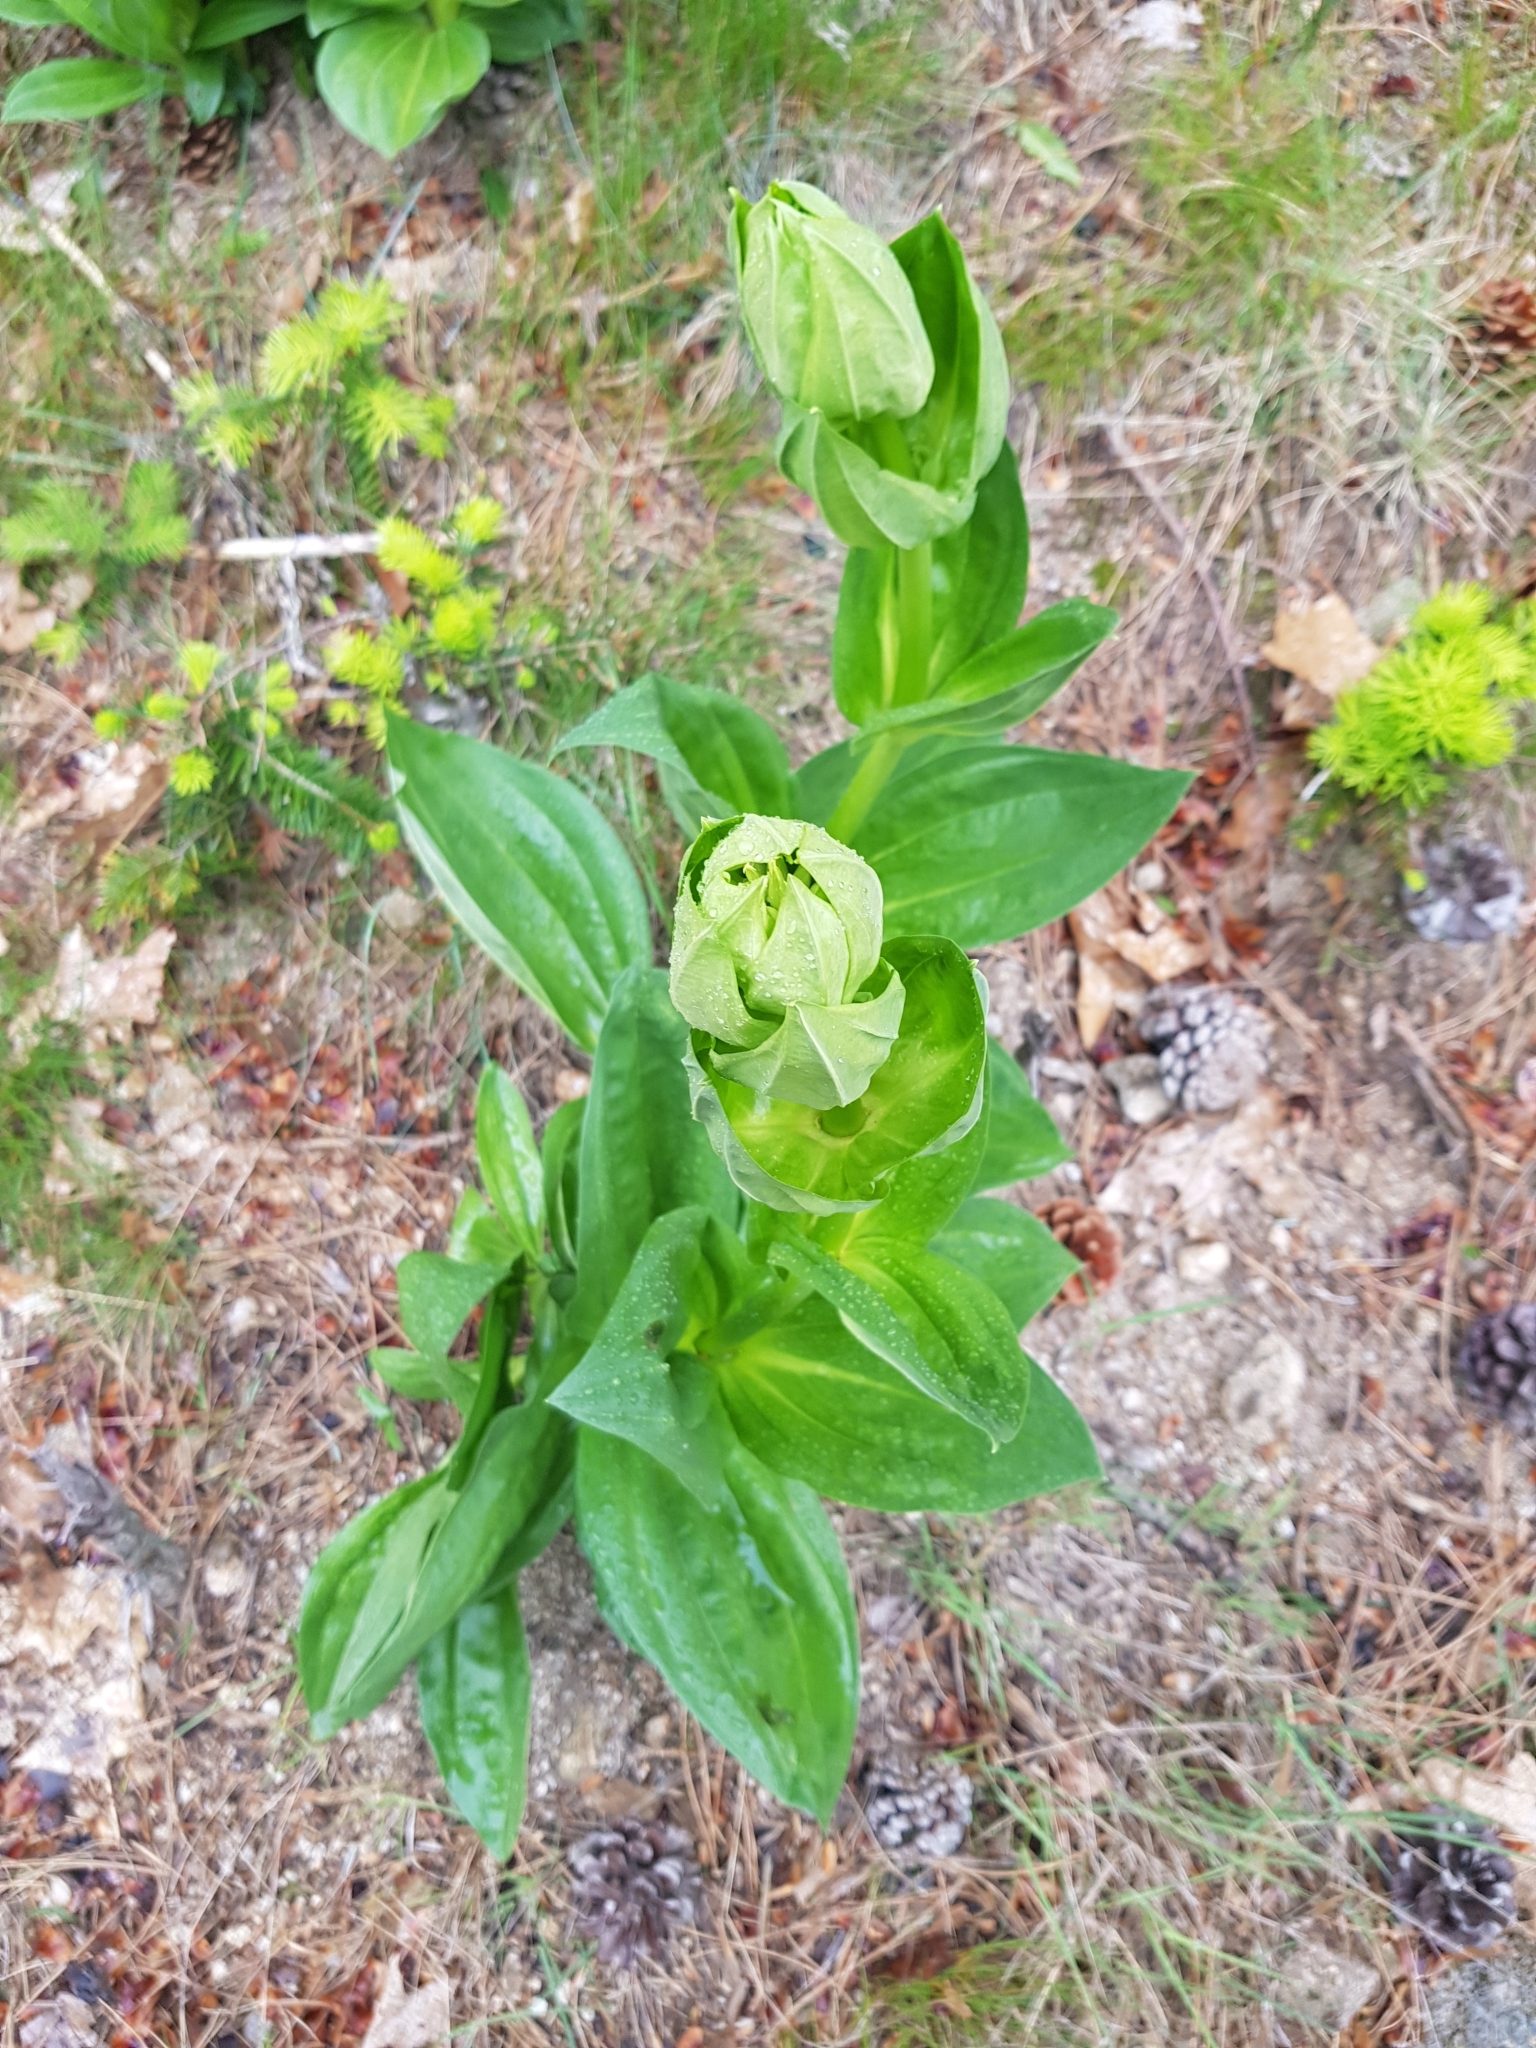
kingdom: Plantae
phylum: Tracheophyta
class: Magnoliopsida
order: Gentianales
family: Gentianaceae
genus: Gentiana
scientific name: Gentiana lutea
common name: Great yellow gentian
